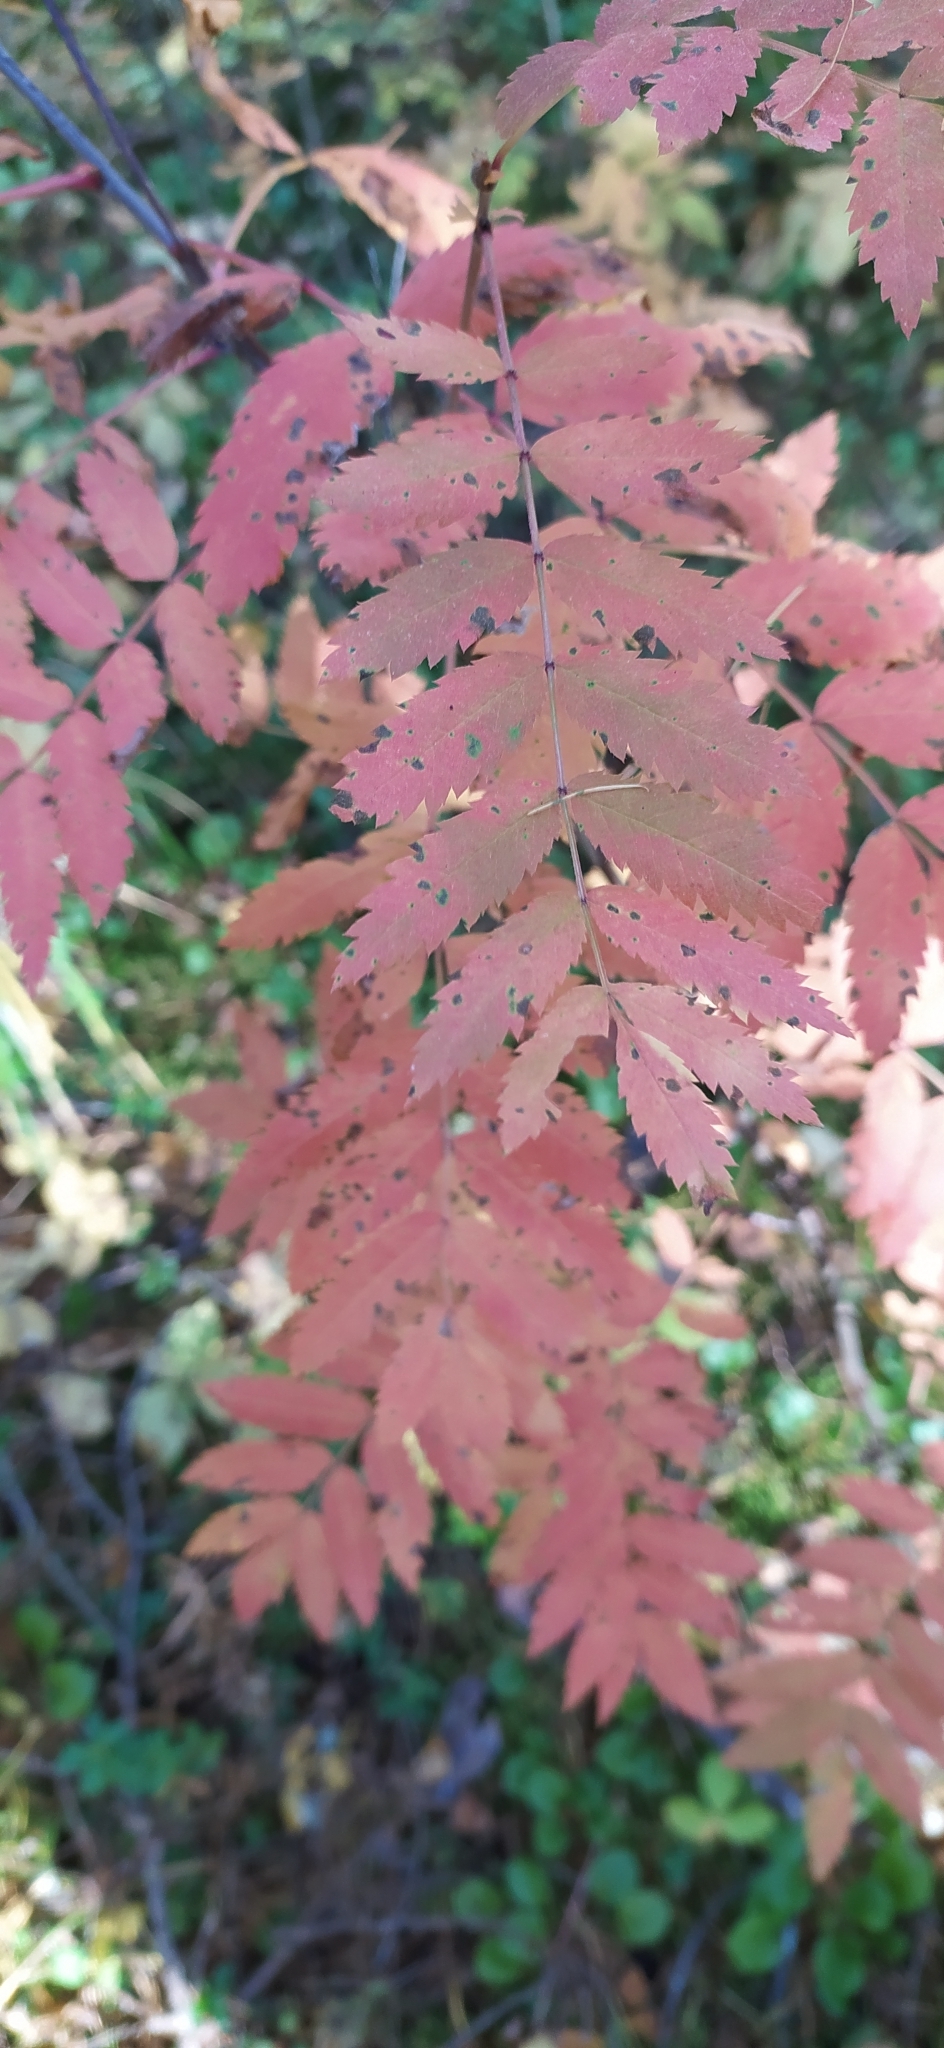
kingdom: Plantae
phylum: Tracheophyta
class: Magnoliopsida
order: Rosales
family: Rosaceae
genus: Sorbus
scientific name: Sorbus aucuparia
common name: Rowan
